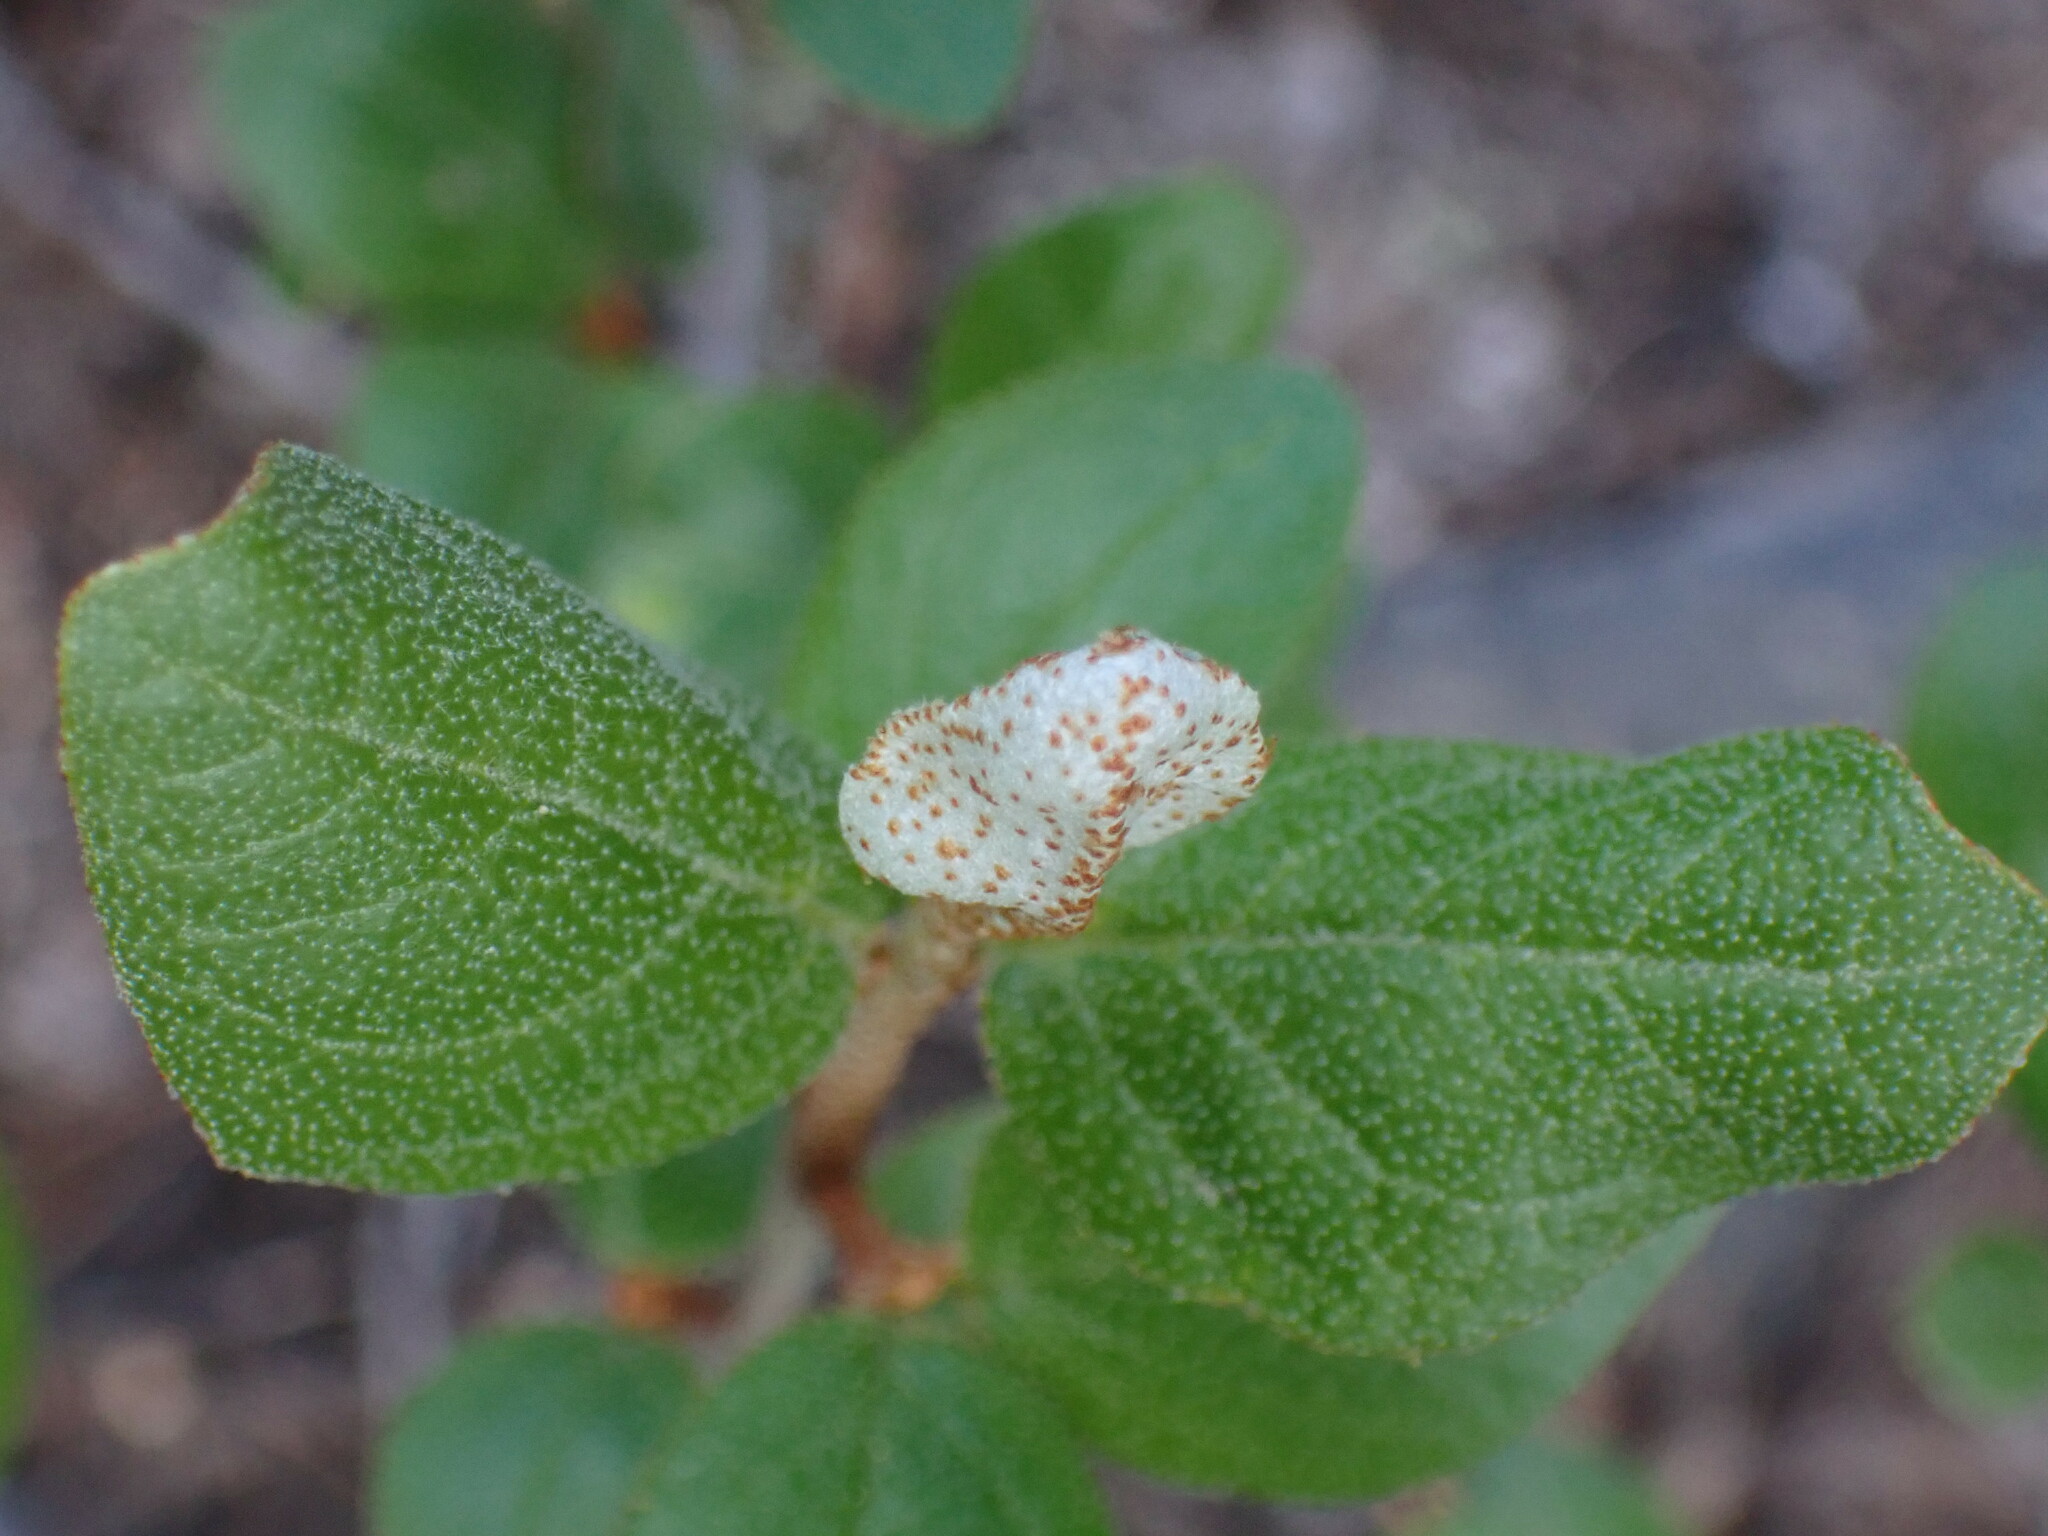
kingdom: Plantae
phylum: Tracheophyta
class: Magnoliopsida
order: Rosales
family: Elaeagnaceae
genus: Shepherdia
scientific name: Shepherdia canadensis
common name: Soapberry
